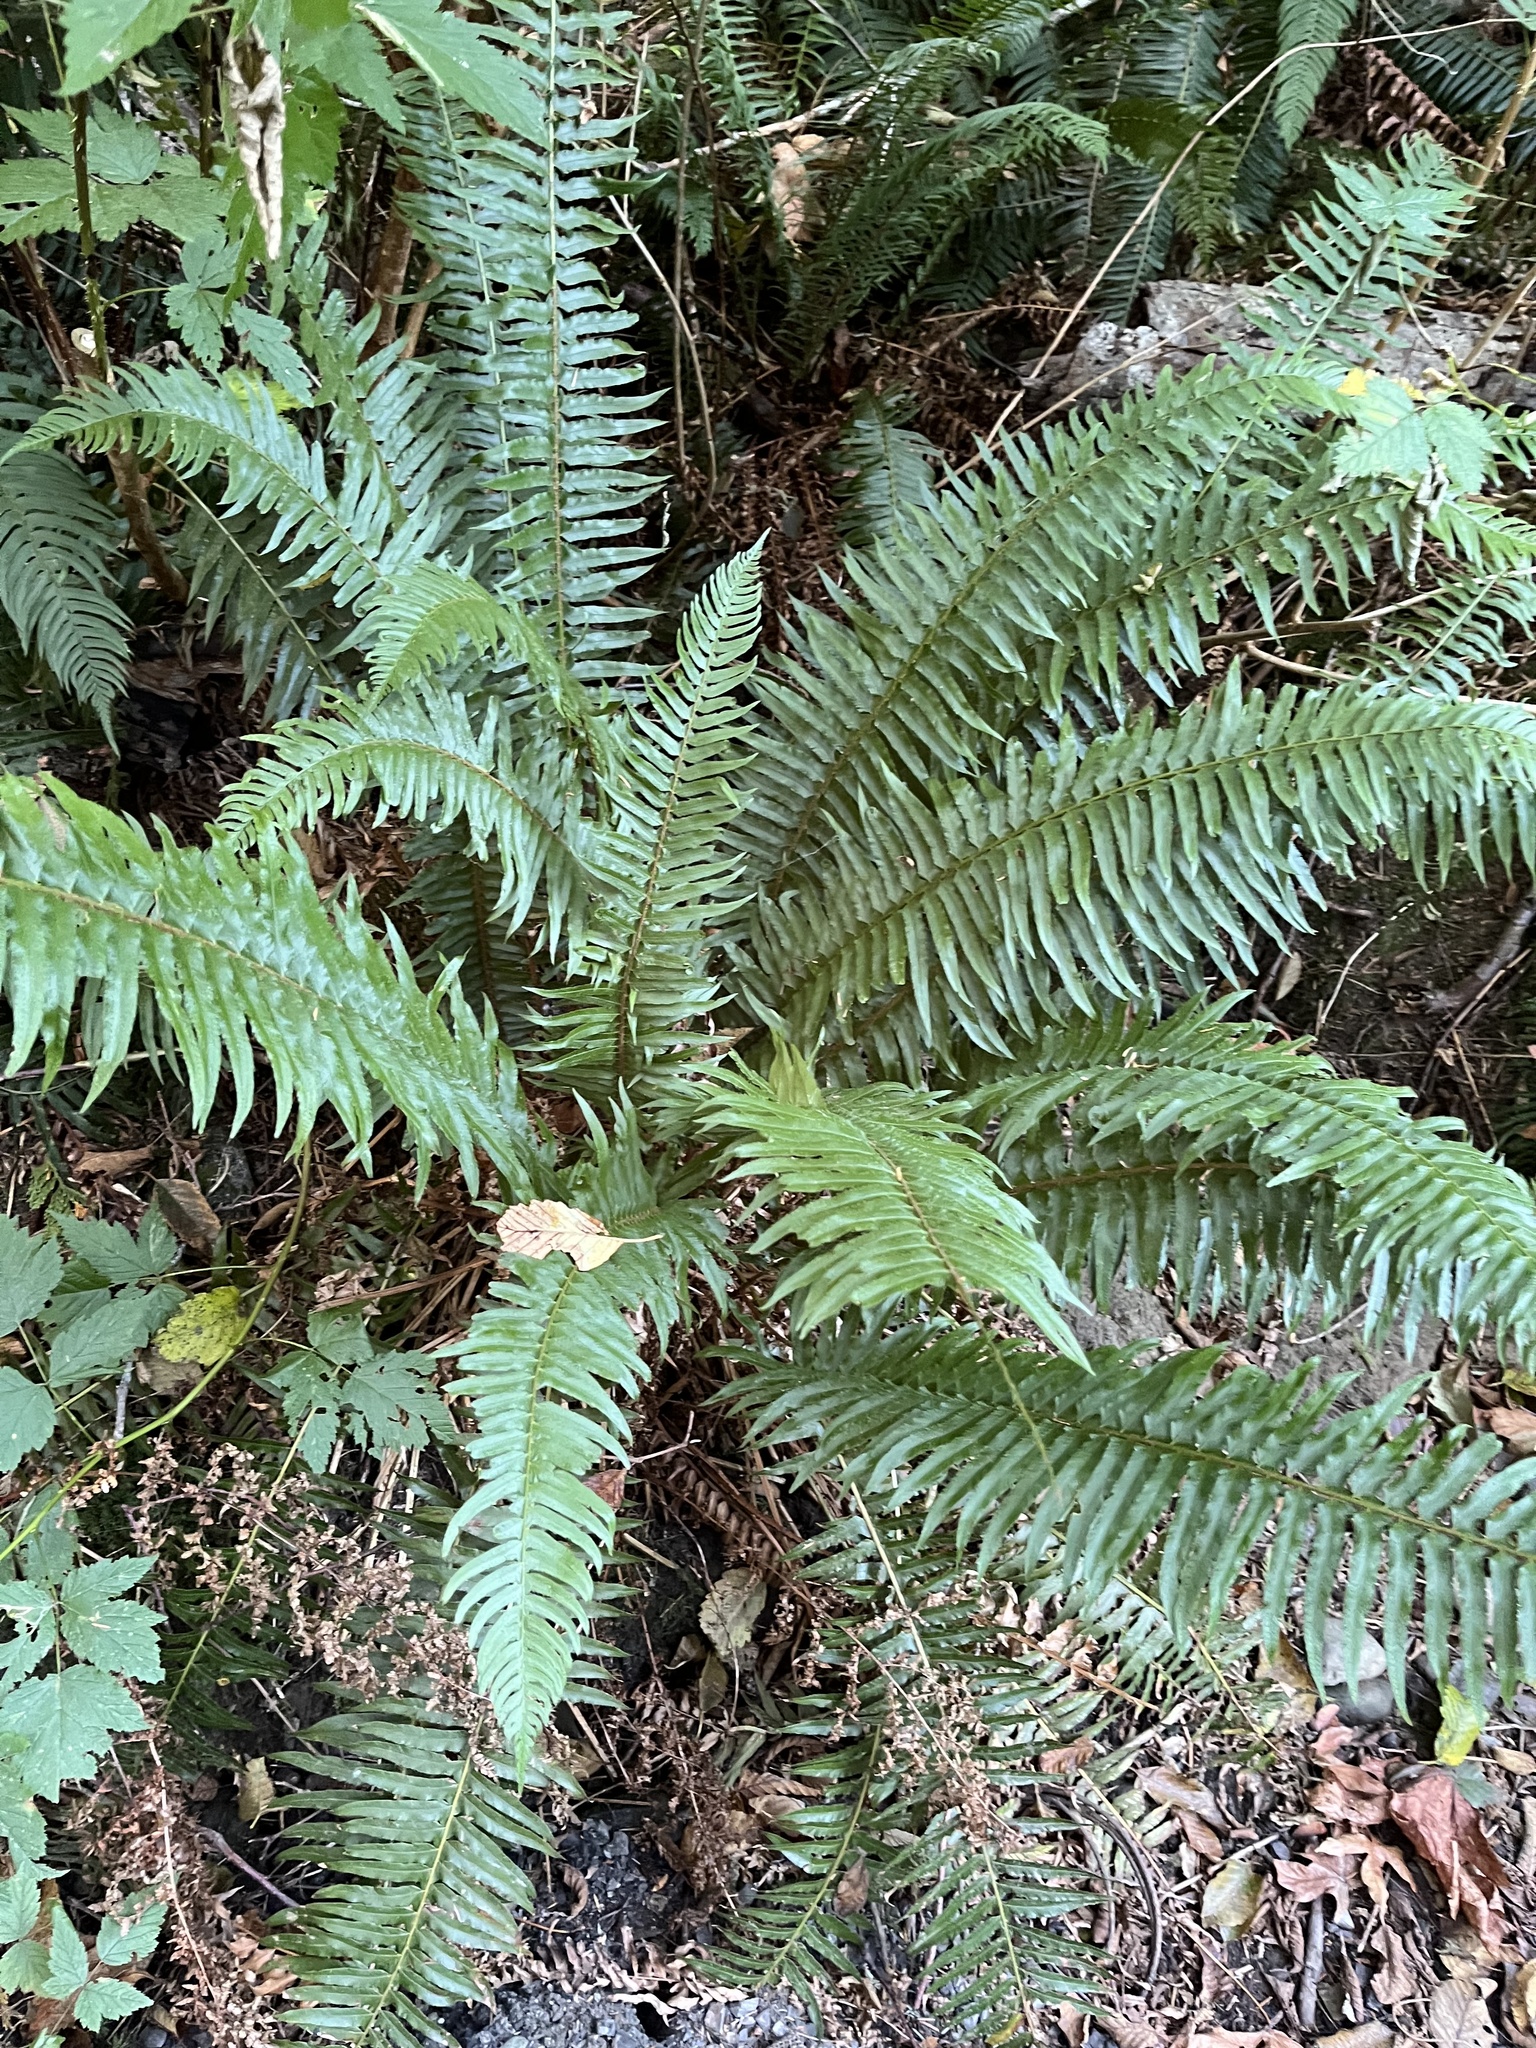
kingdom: Plantae
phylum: Tracheophyta
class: Polypodiopsida
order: Polypodiales
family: Dryopteridaceae
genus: Polystichum
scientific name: Polystichum munitum
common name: Western sword-fern
